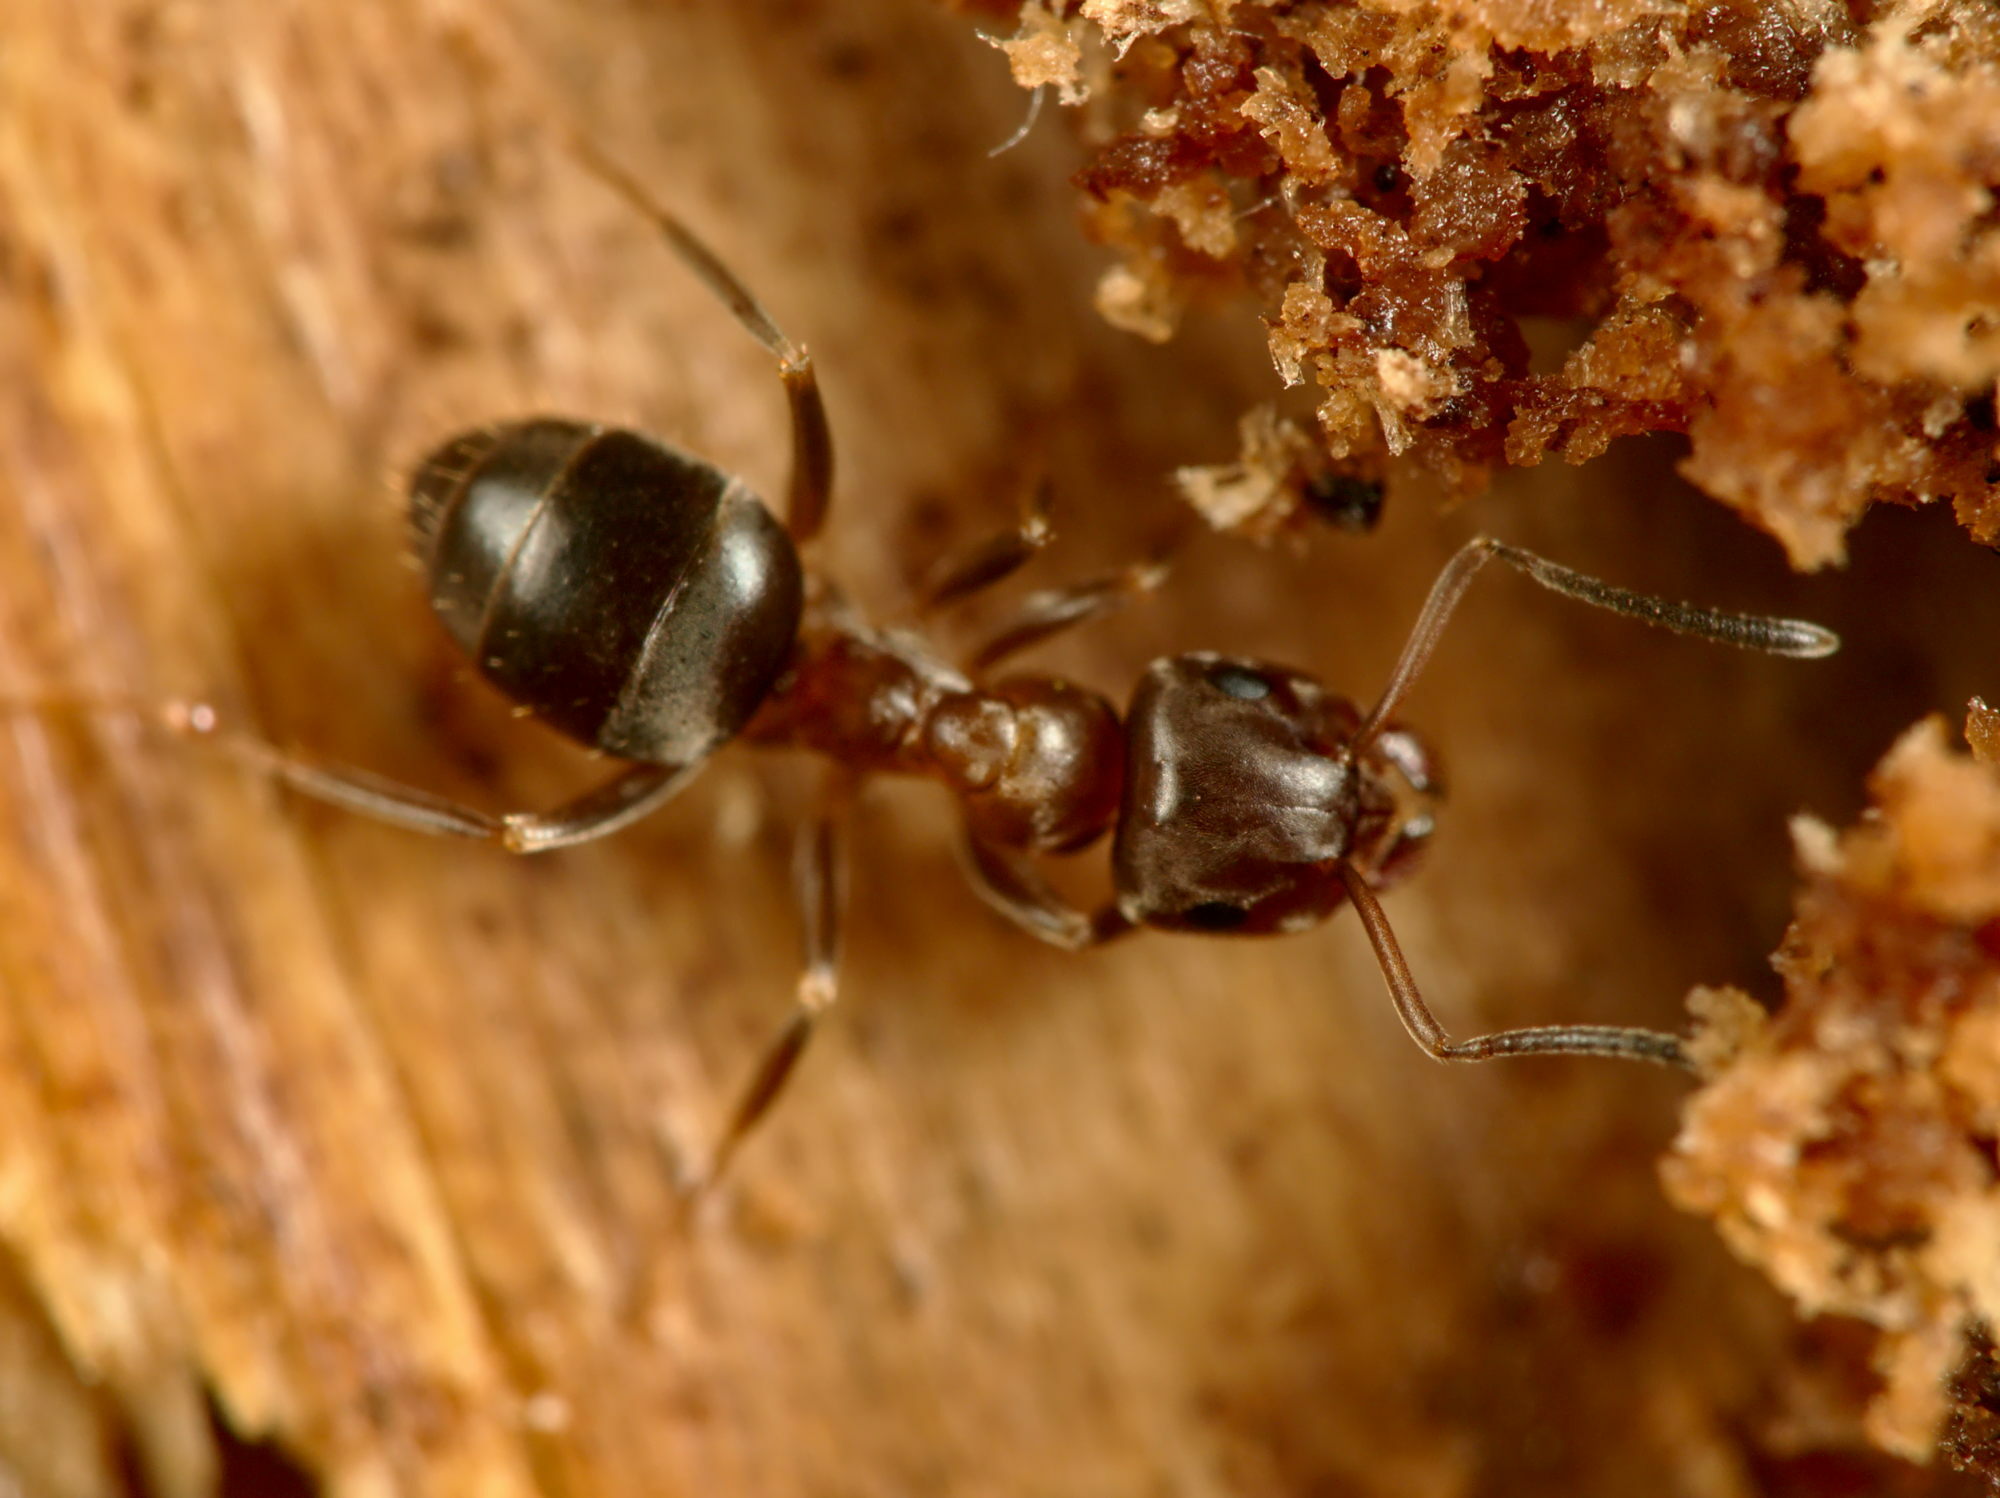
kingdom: Animalia
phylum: Arthropoda
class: Insecta
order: Hymenoptera
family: Formicidae
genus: Lasius
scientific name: Lasius brunneus
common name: Brown ant
